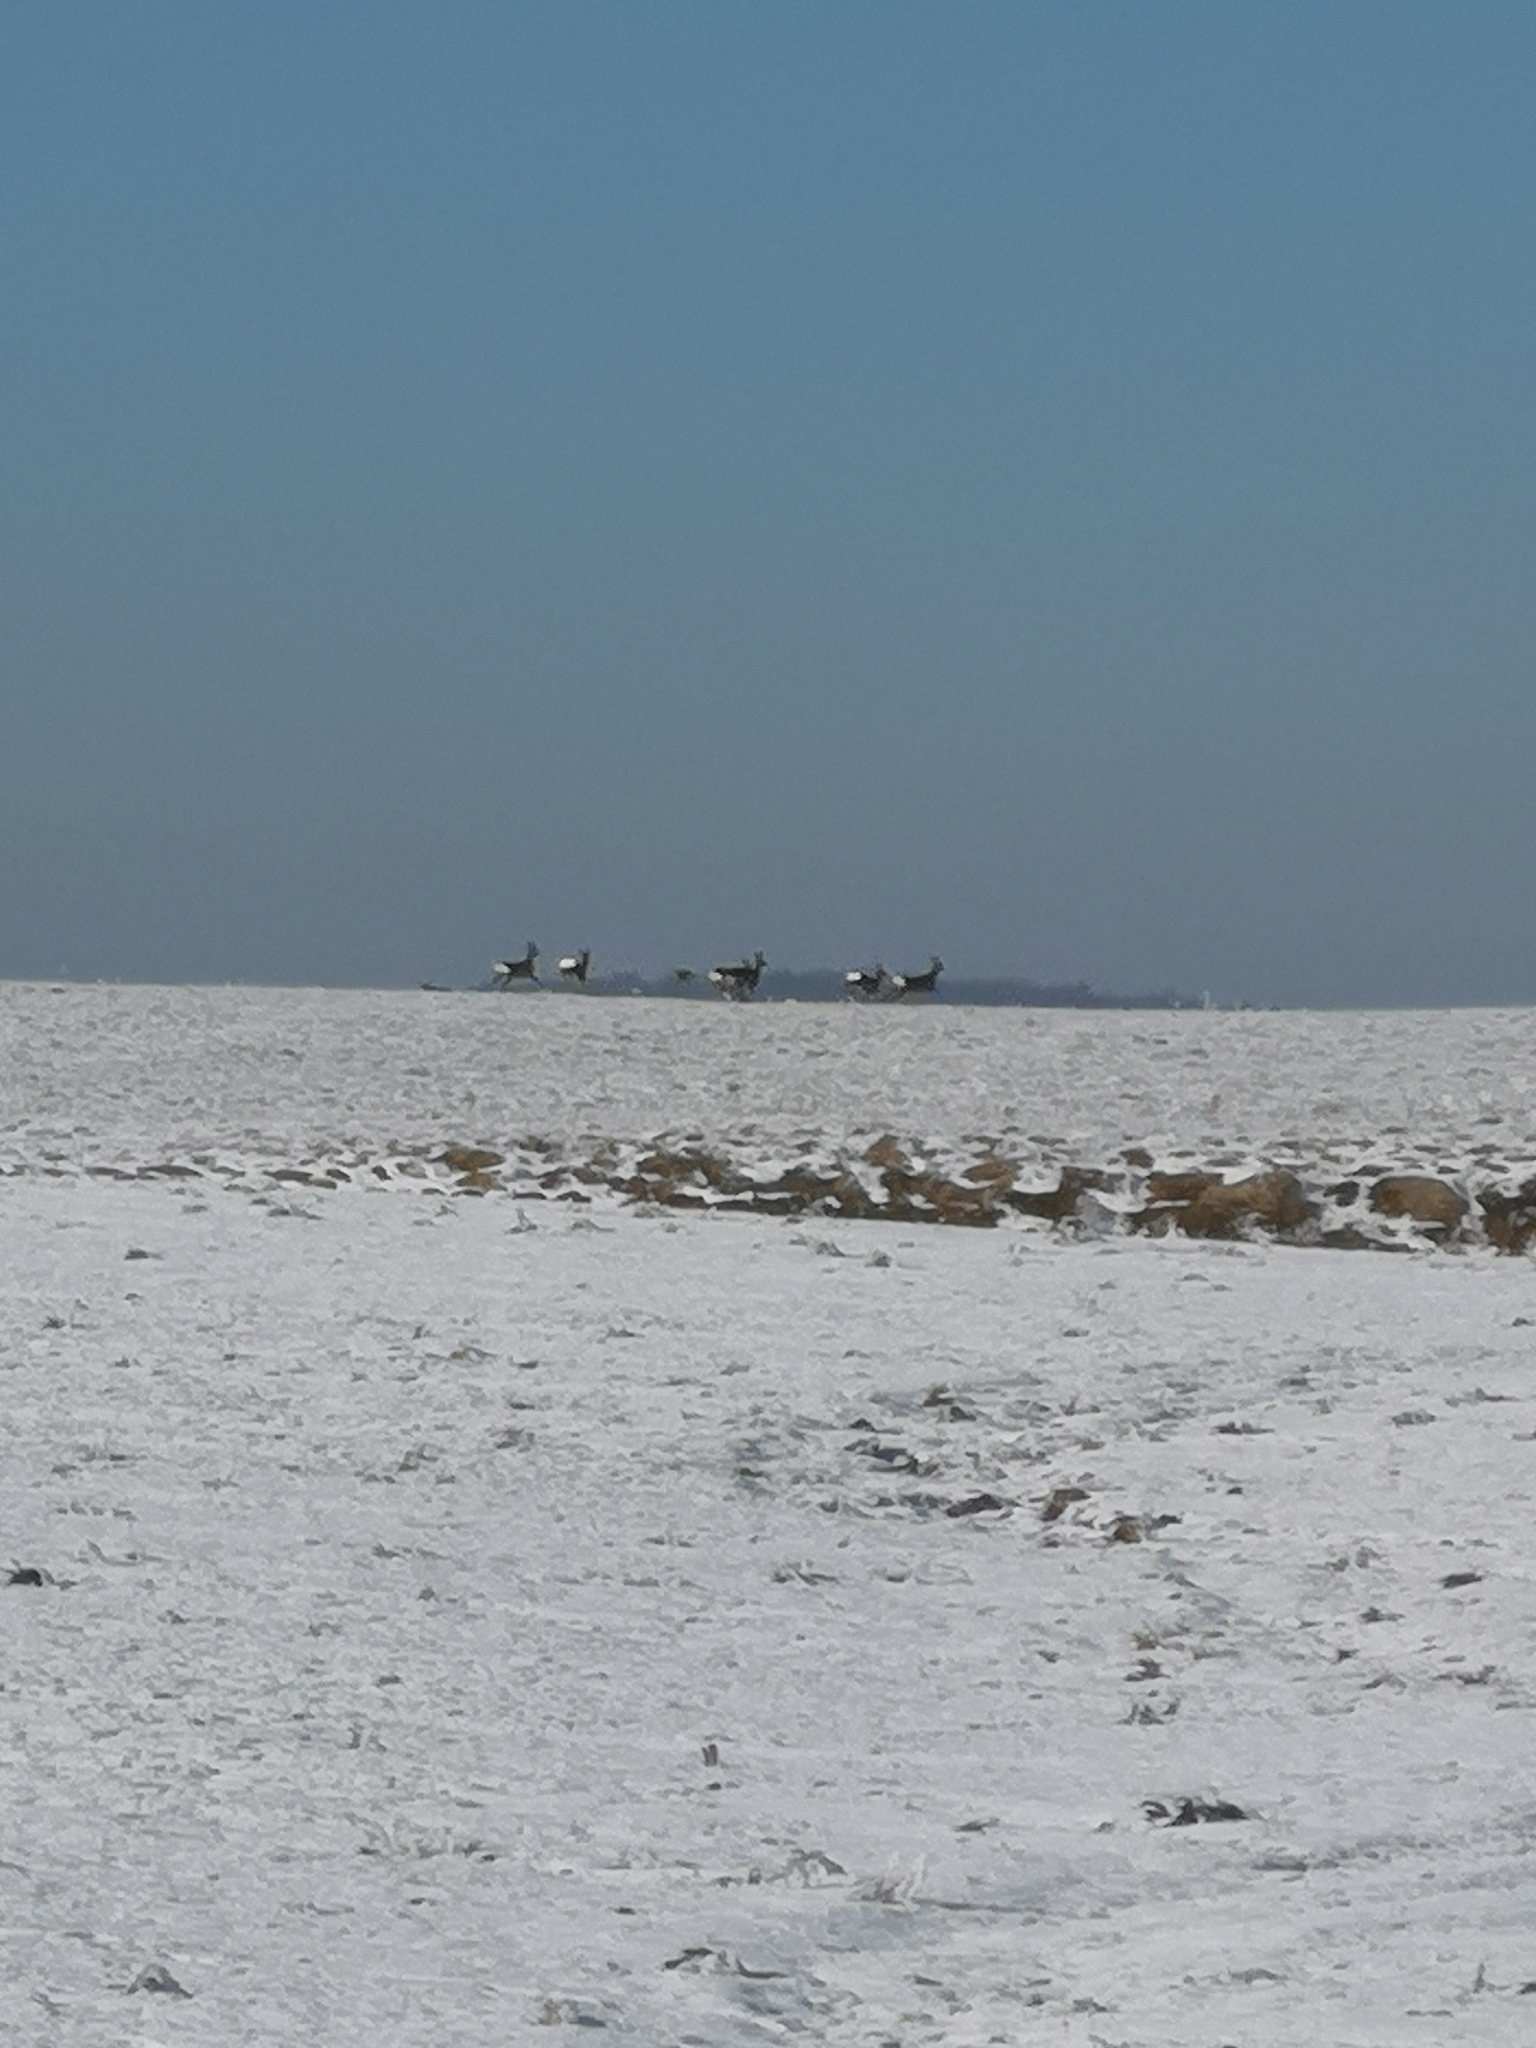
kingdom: Animalia
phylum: Chordata
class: Mammalia
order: Artiodactyla
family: Cervidae
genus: Capreolus
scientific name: Capreolus capreolus
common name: Western roe deer
